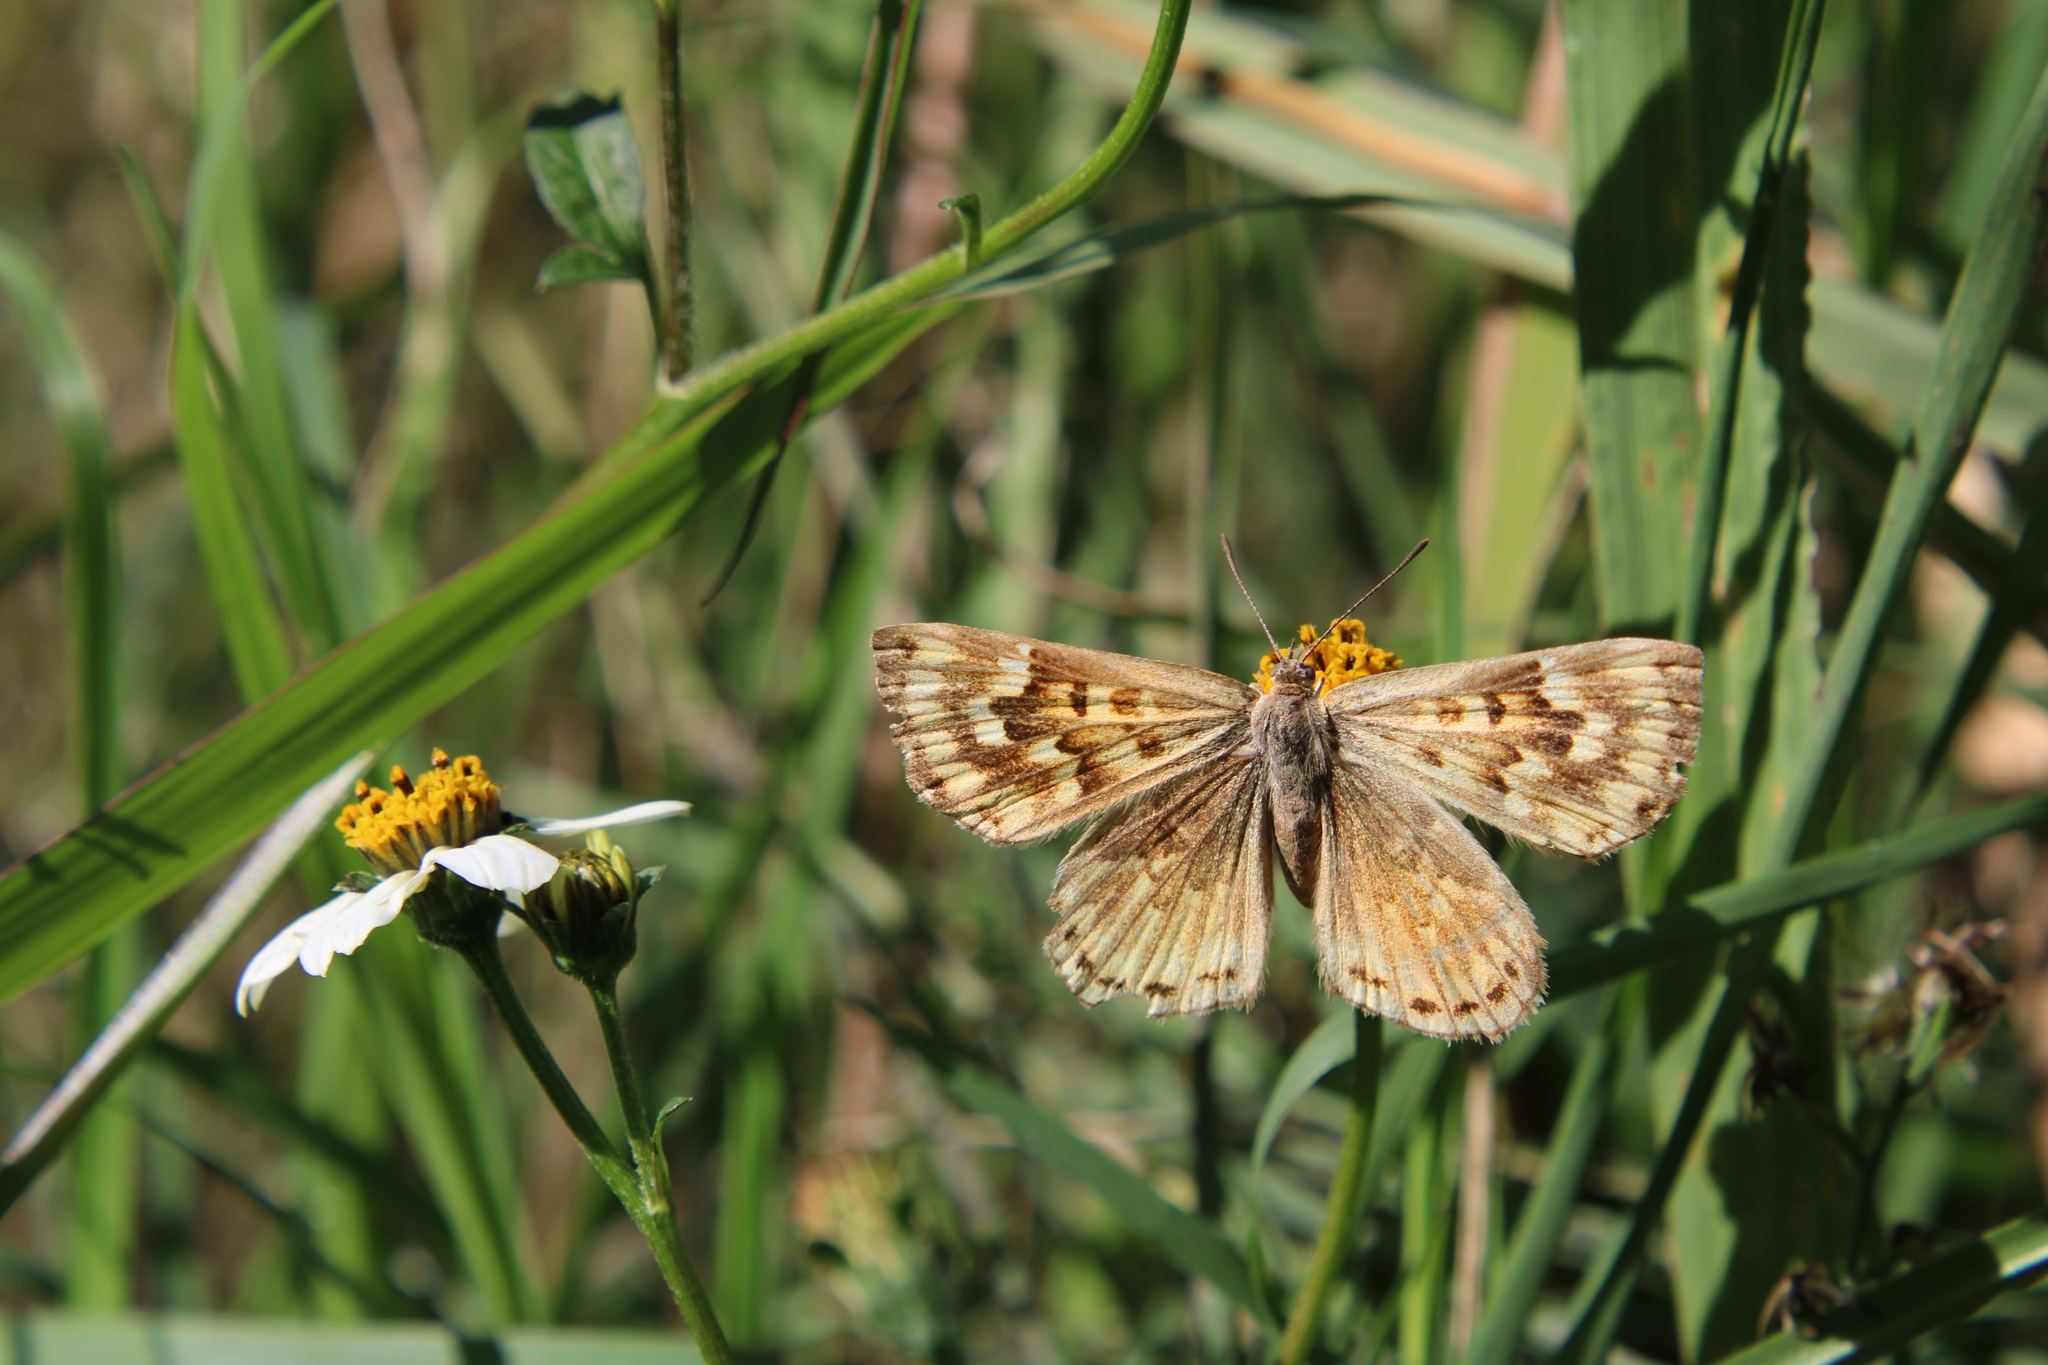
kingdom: Animalia
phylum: Arthropoda
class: Insecta
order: Lepidoptera
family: Lycaenidae
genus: Aricoris
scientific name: Aricoris indistincta
